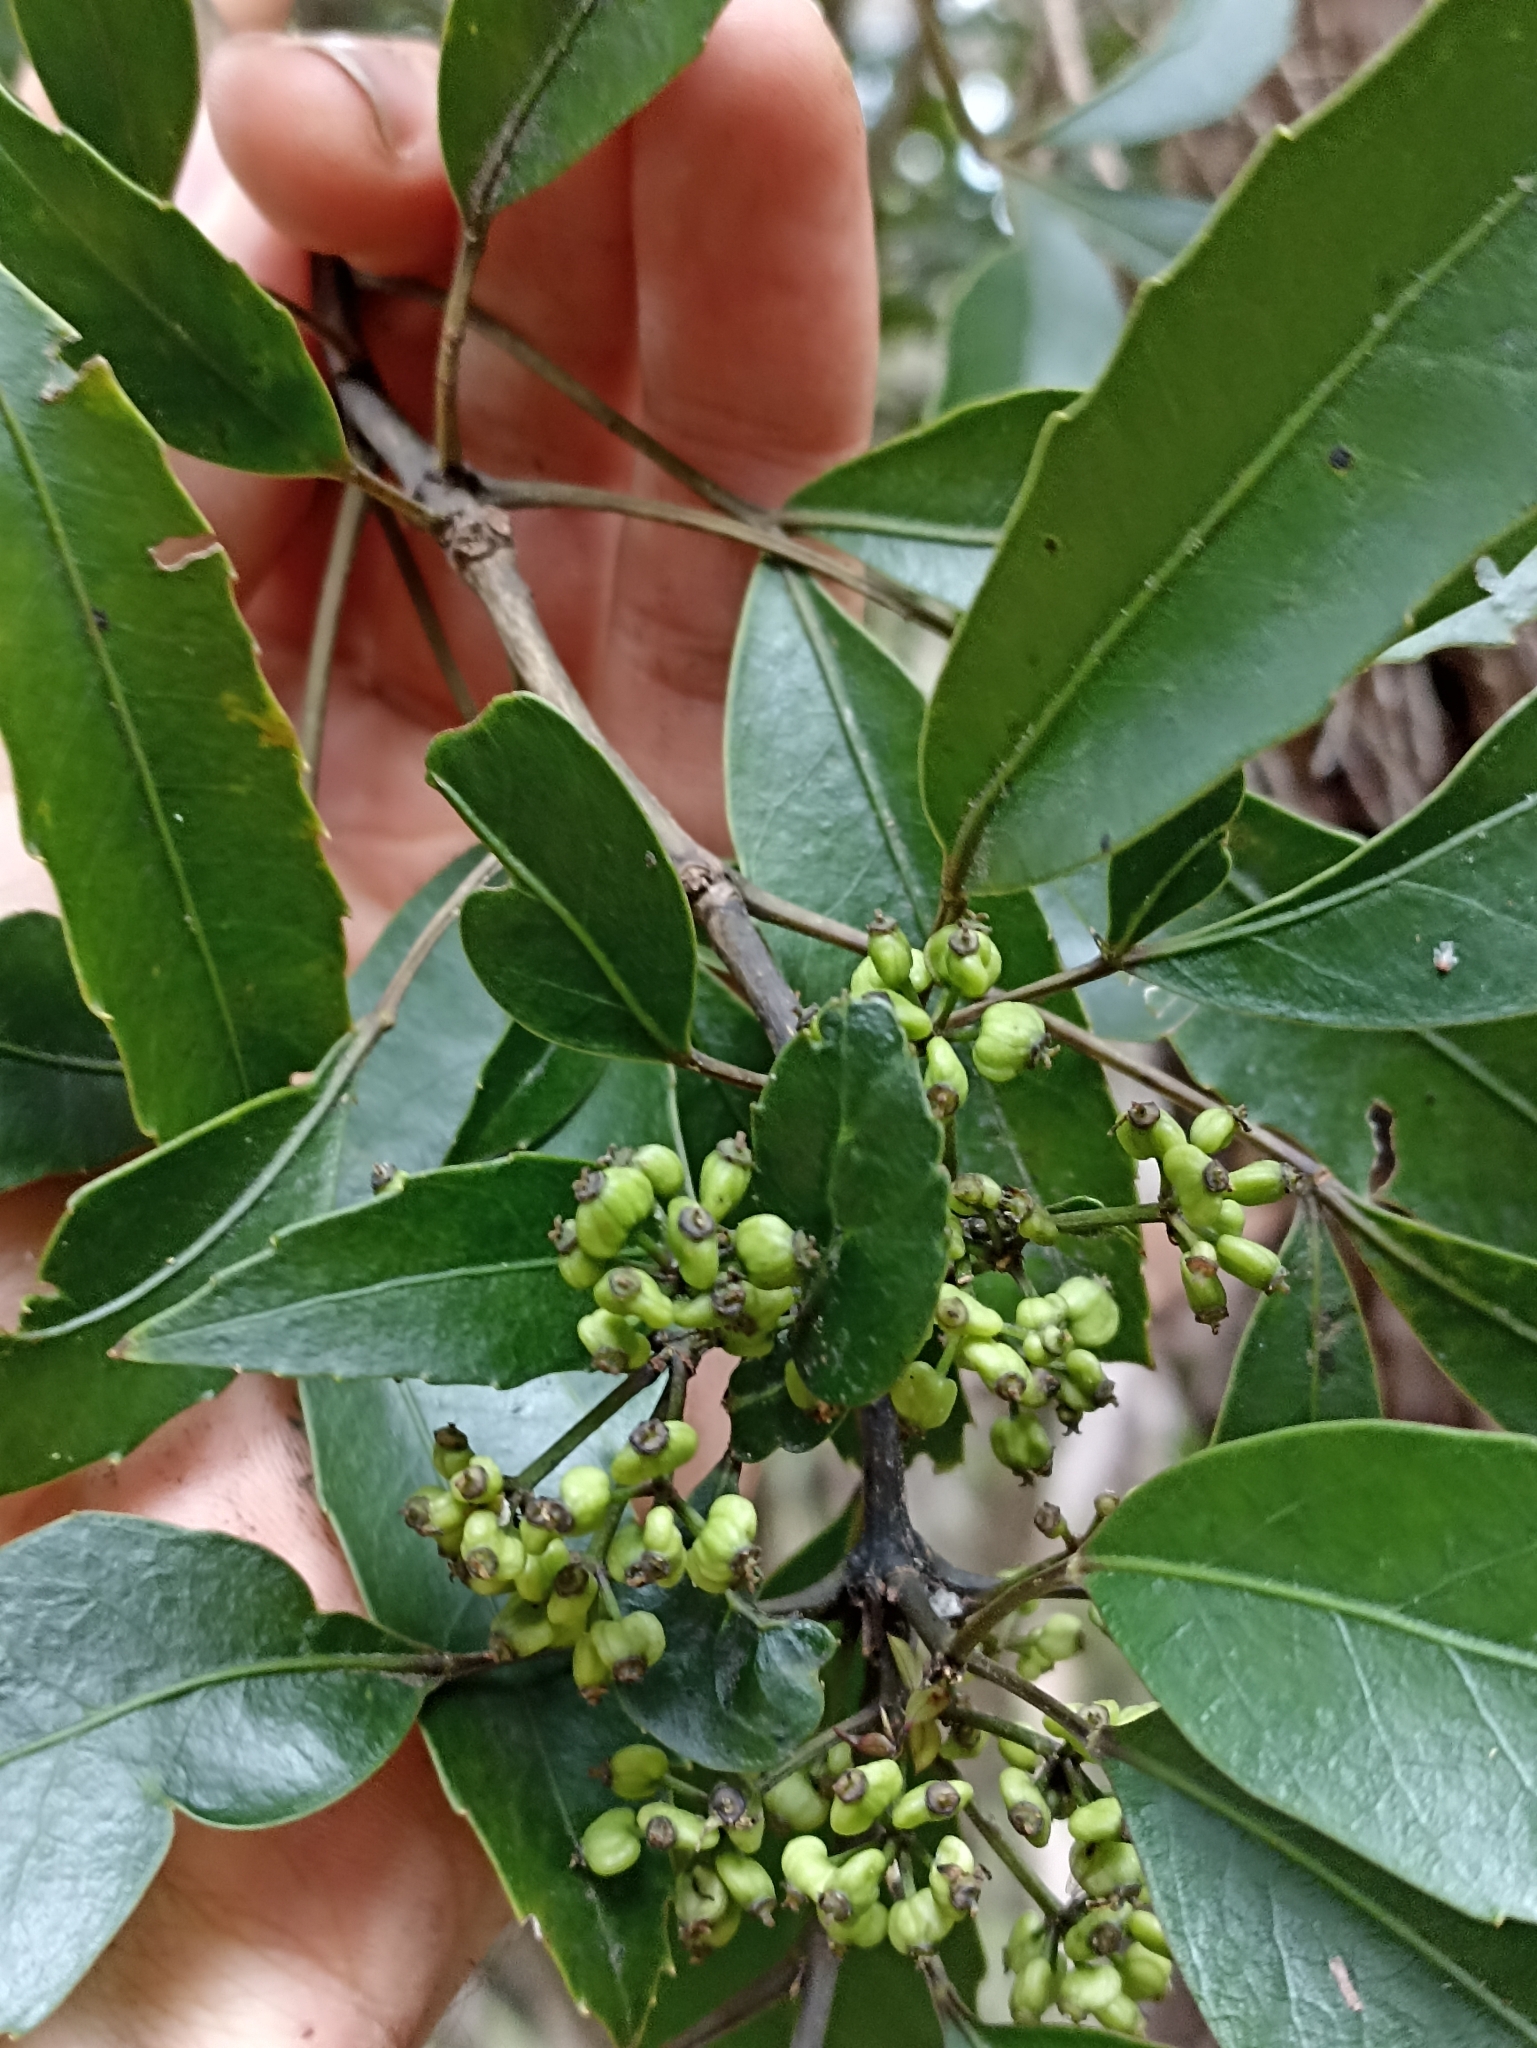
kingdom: Plantae
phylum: Tracheophyta
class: Magnoliopsida
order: Apiales
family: Araliaceae
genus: Raukaua
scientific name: Raukaua simplex
